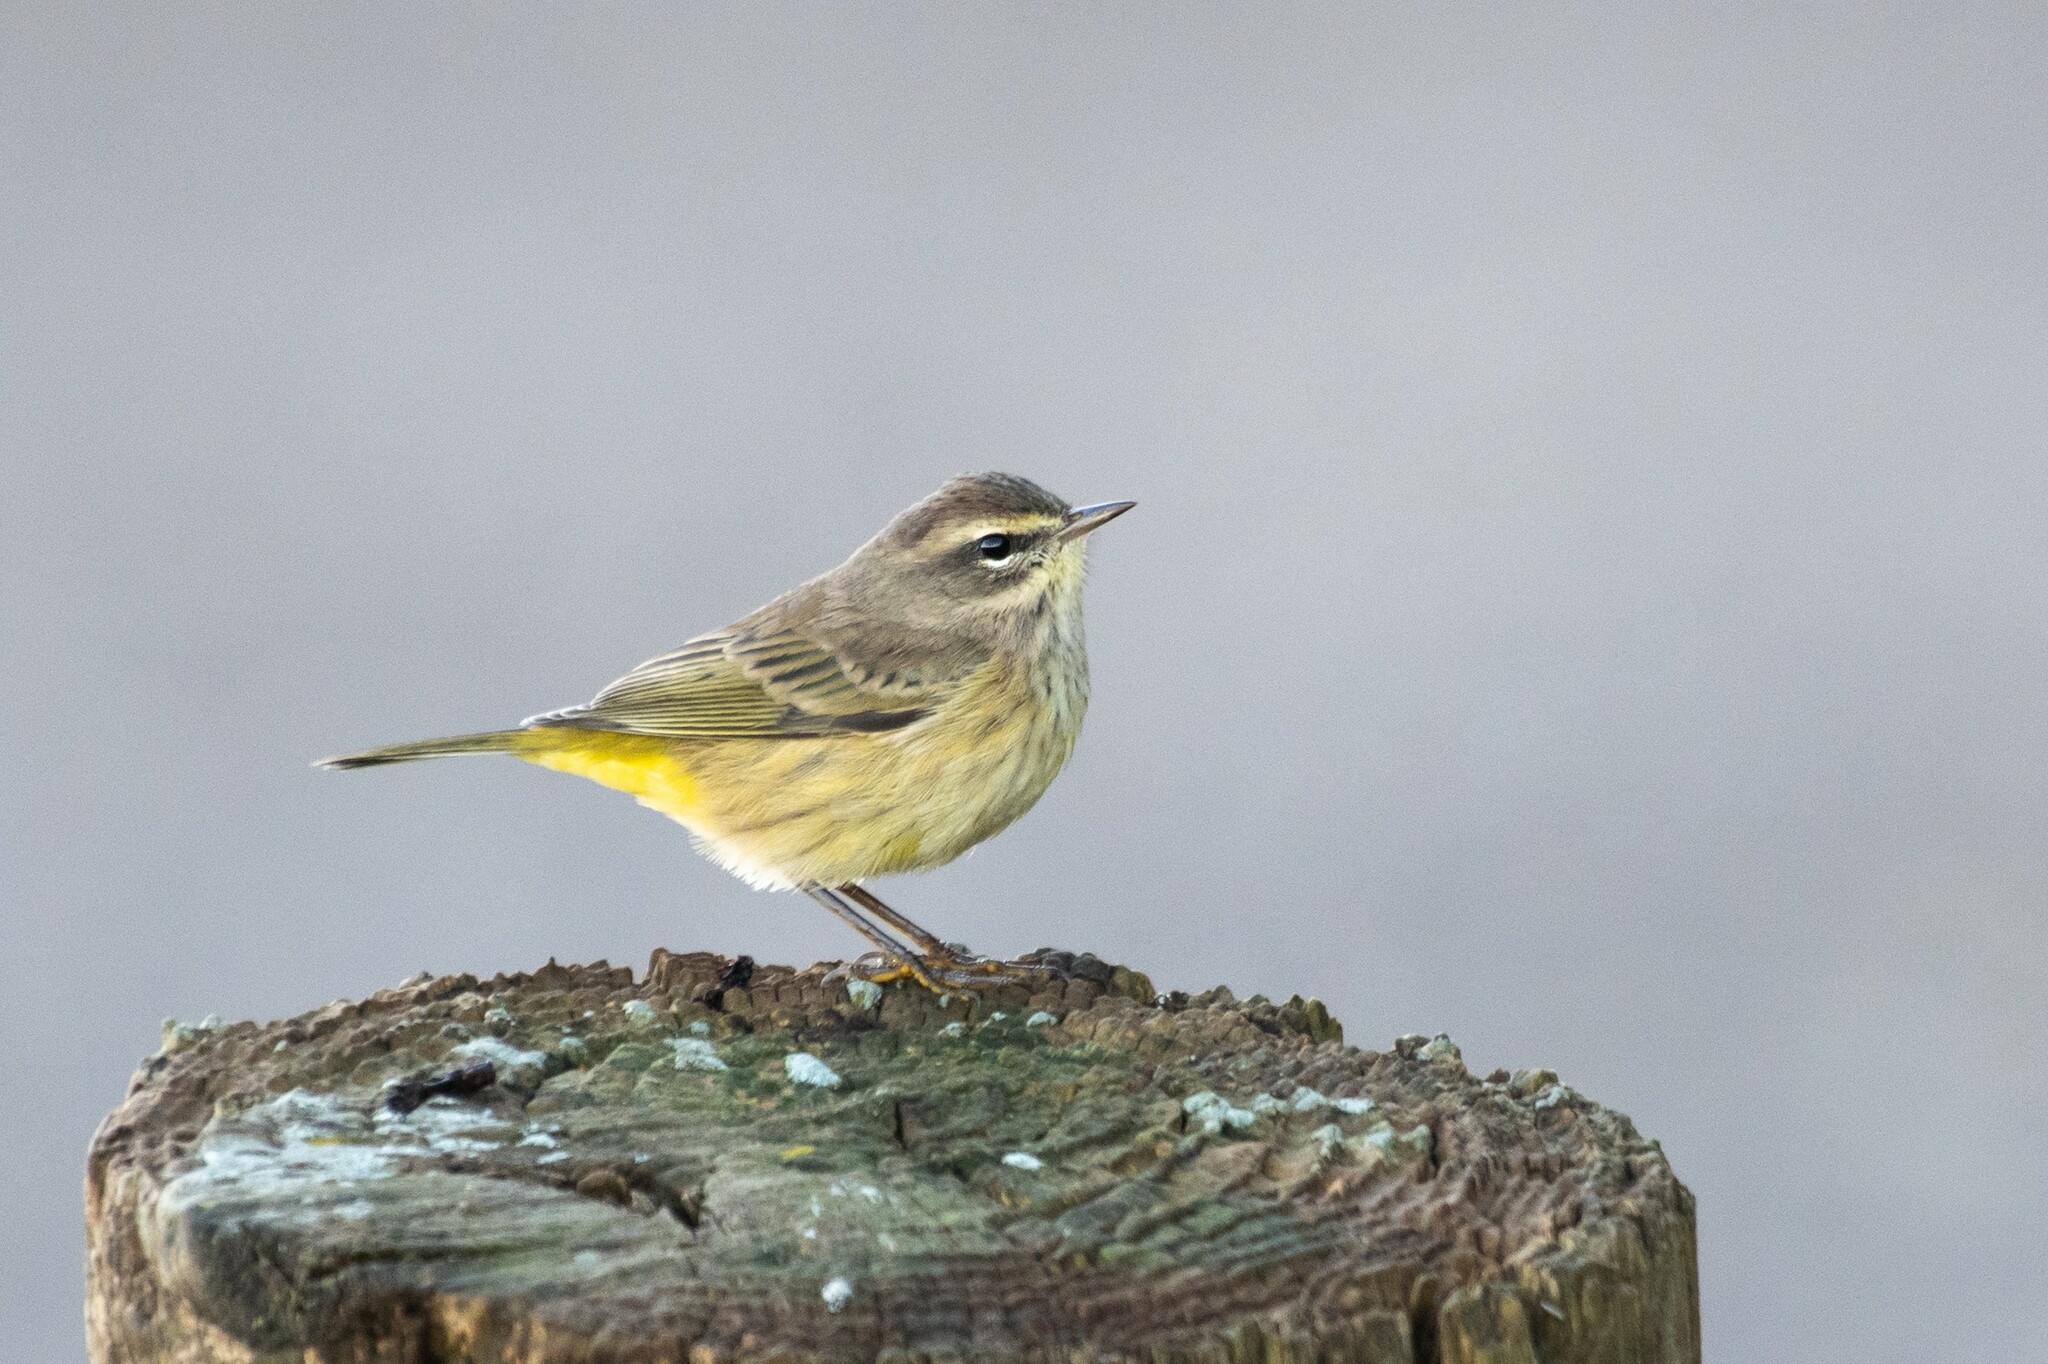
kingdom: Animalia
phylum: Chordata
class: Aves
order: Passeriformes
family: Parulidae
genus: Setophaga
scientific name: Setophaga palmarum
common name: Palm warbler
